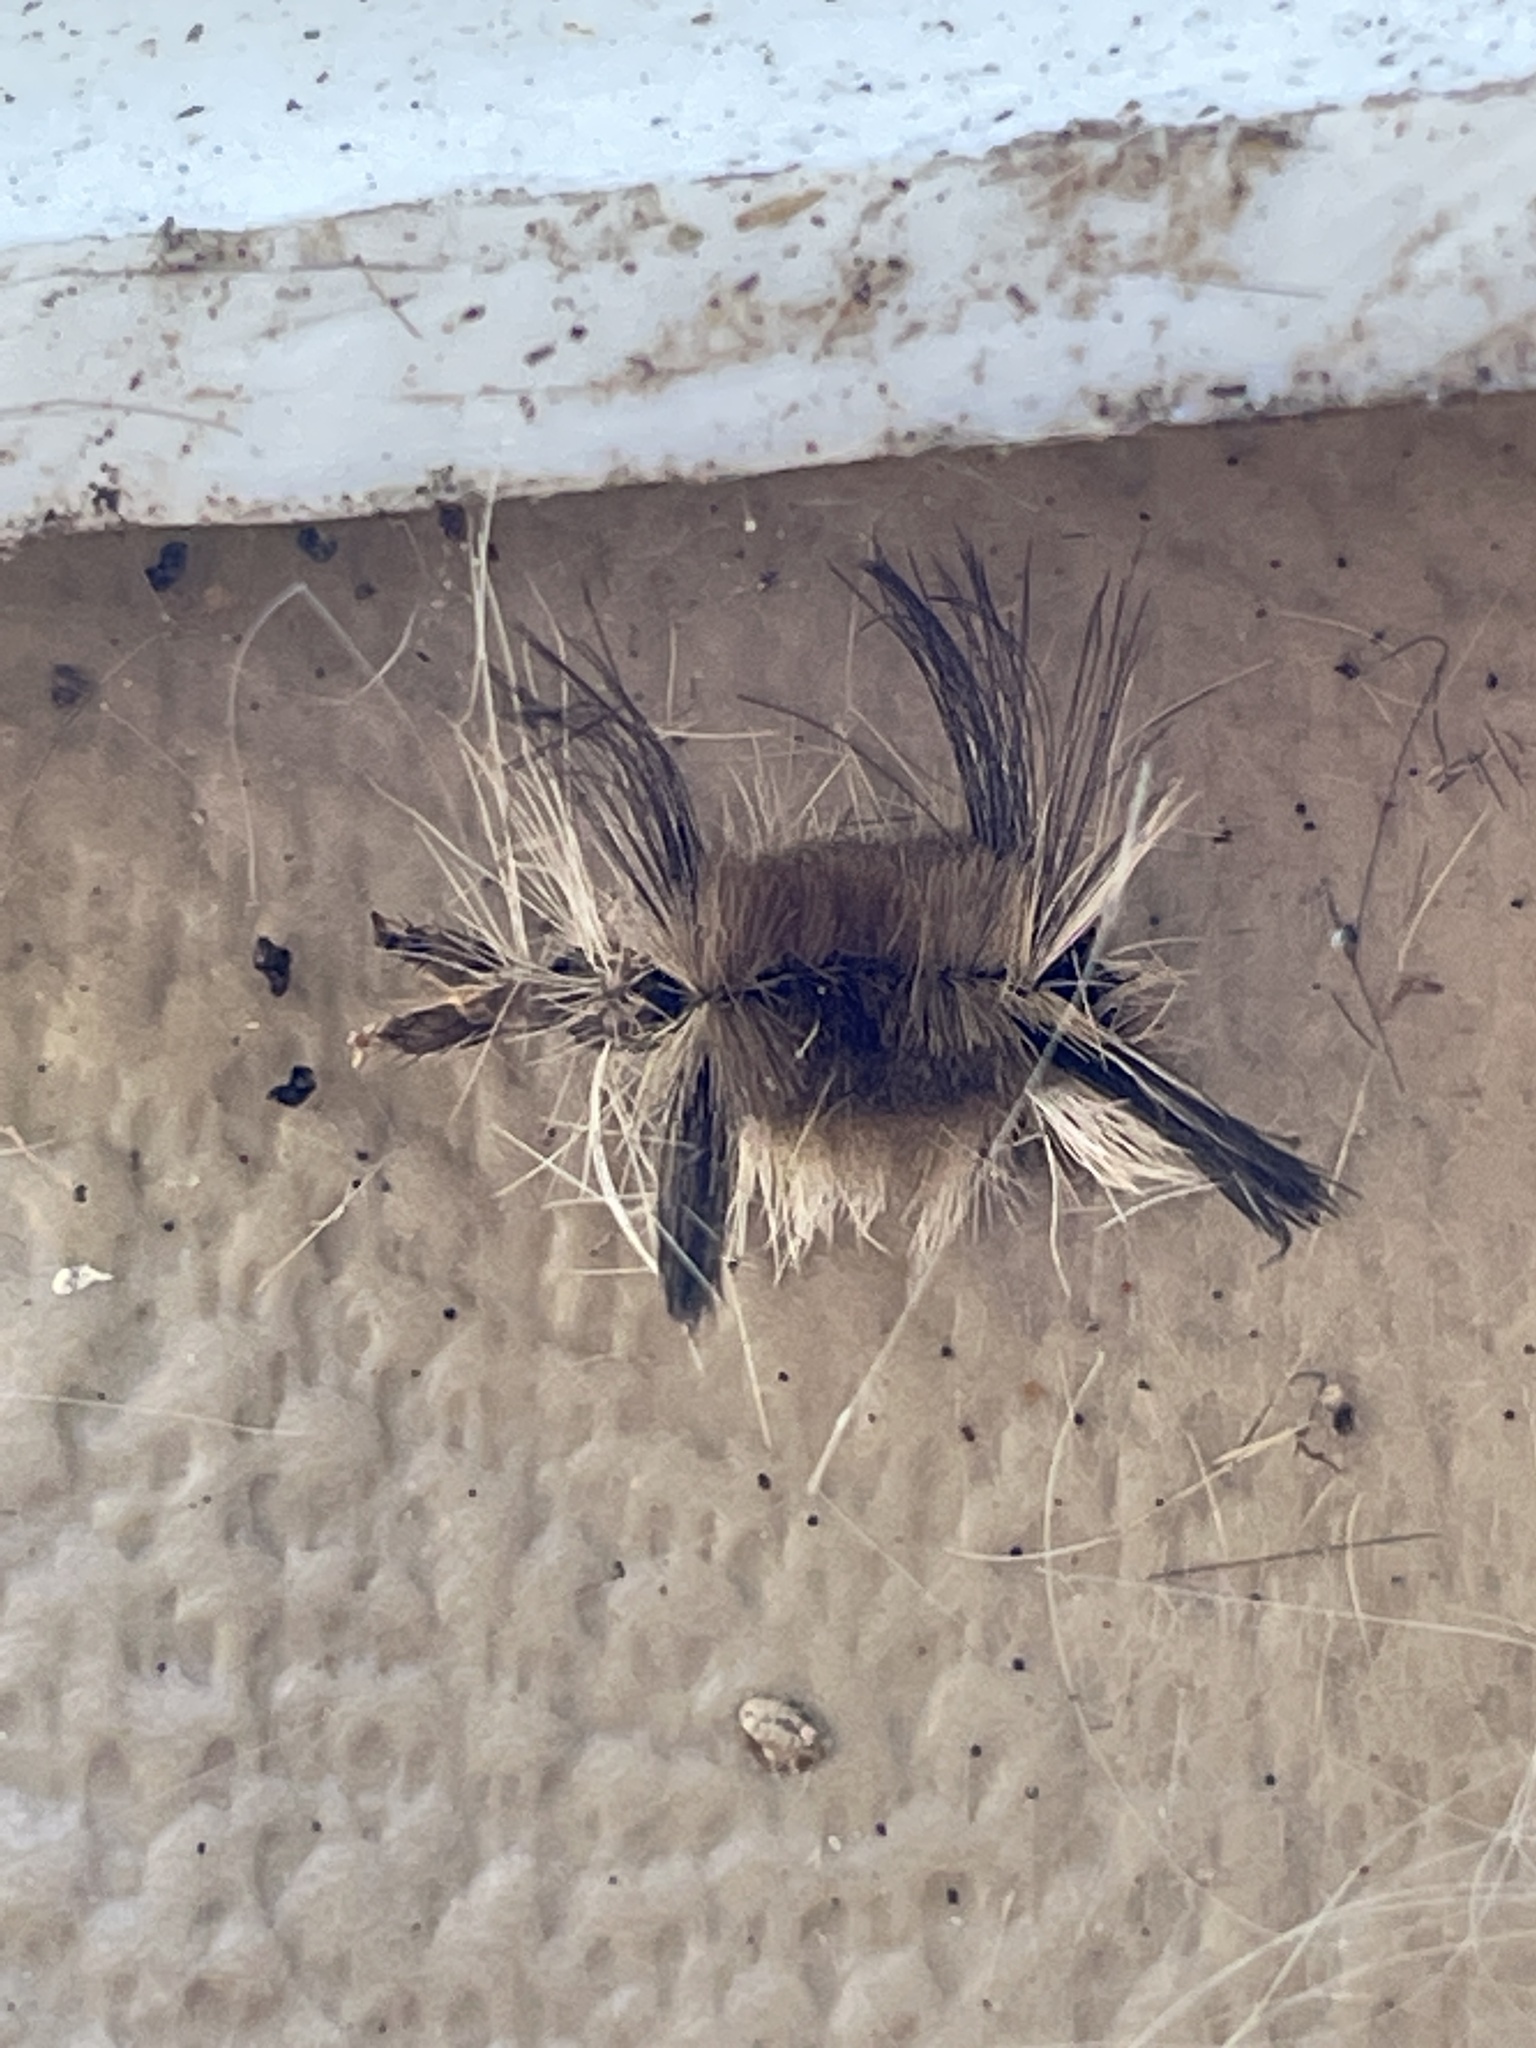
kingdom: Animalia
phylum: Arthropoda
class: Insecta
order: Lepidoptera
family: Erebidae
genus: Halysidota
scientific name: Halysidota tessellaris
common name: Banded tussock moth
